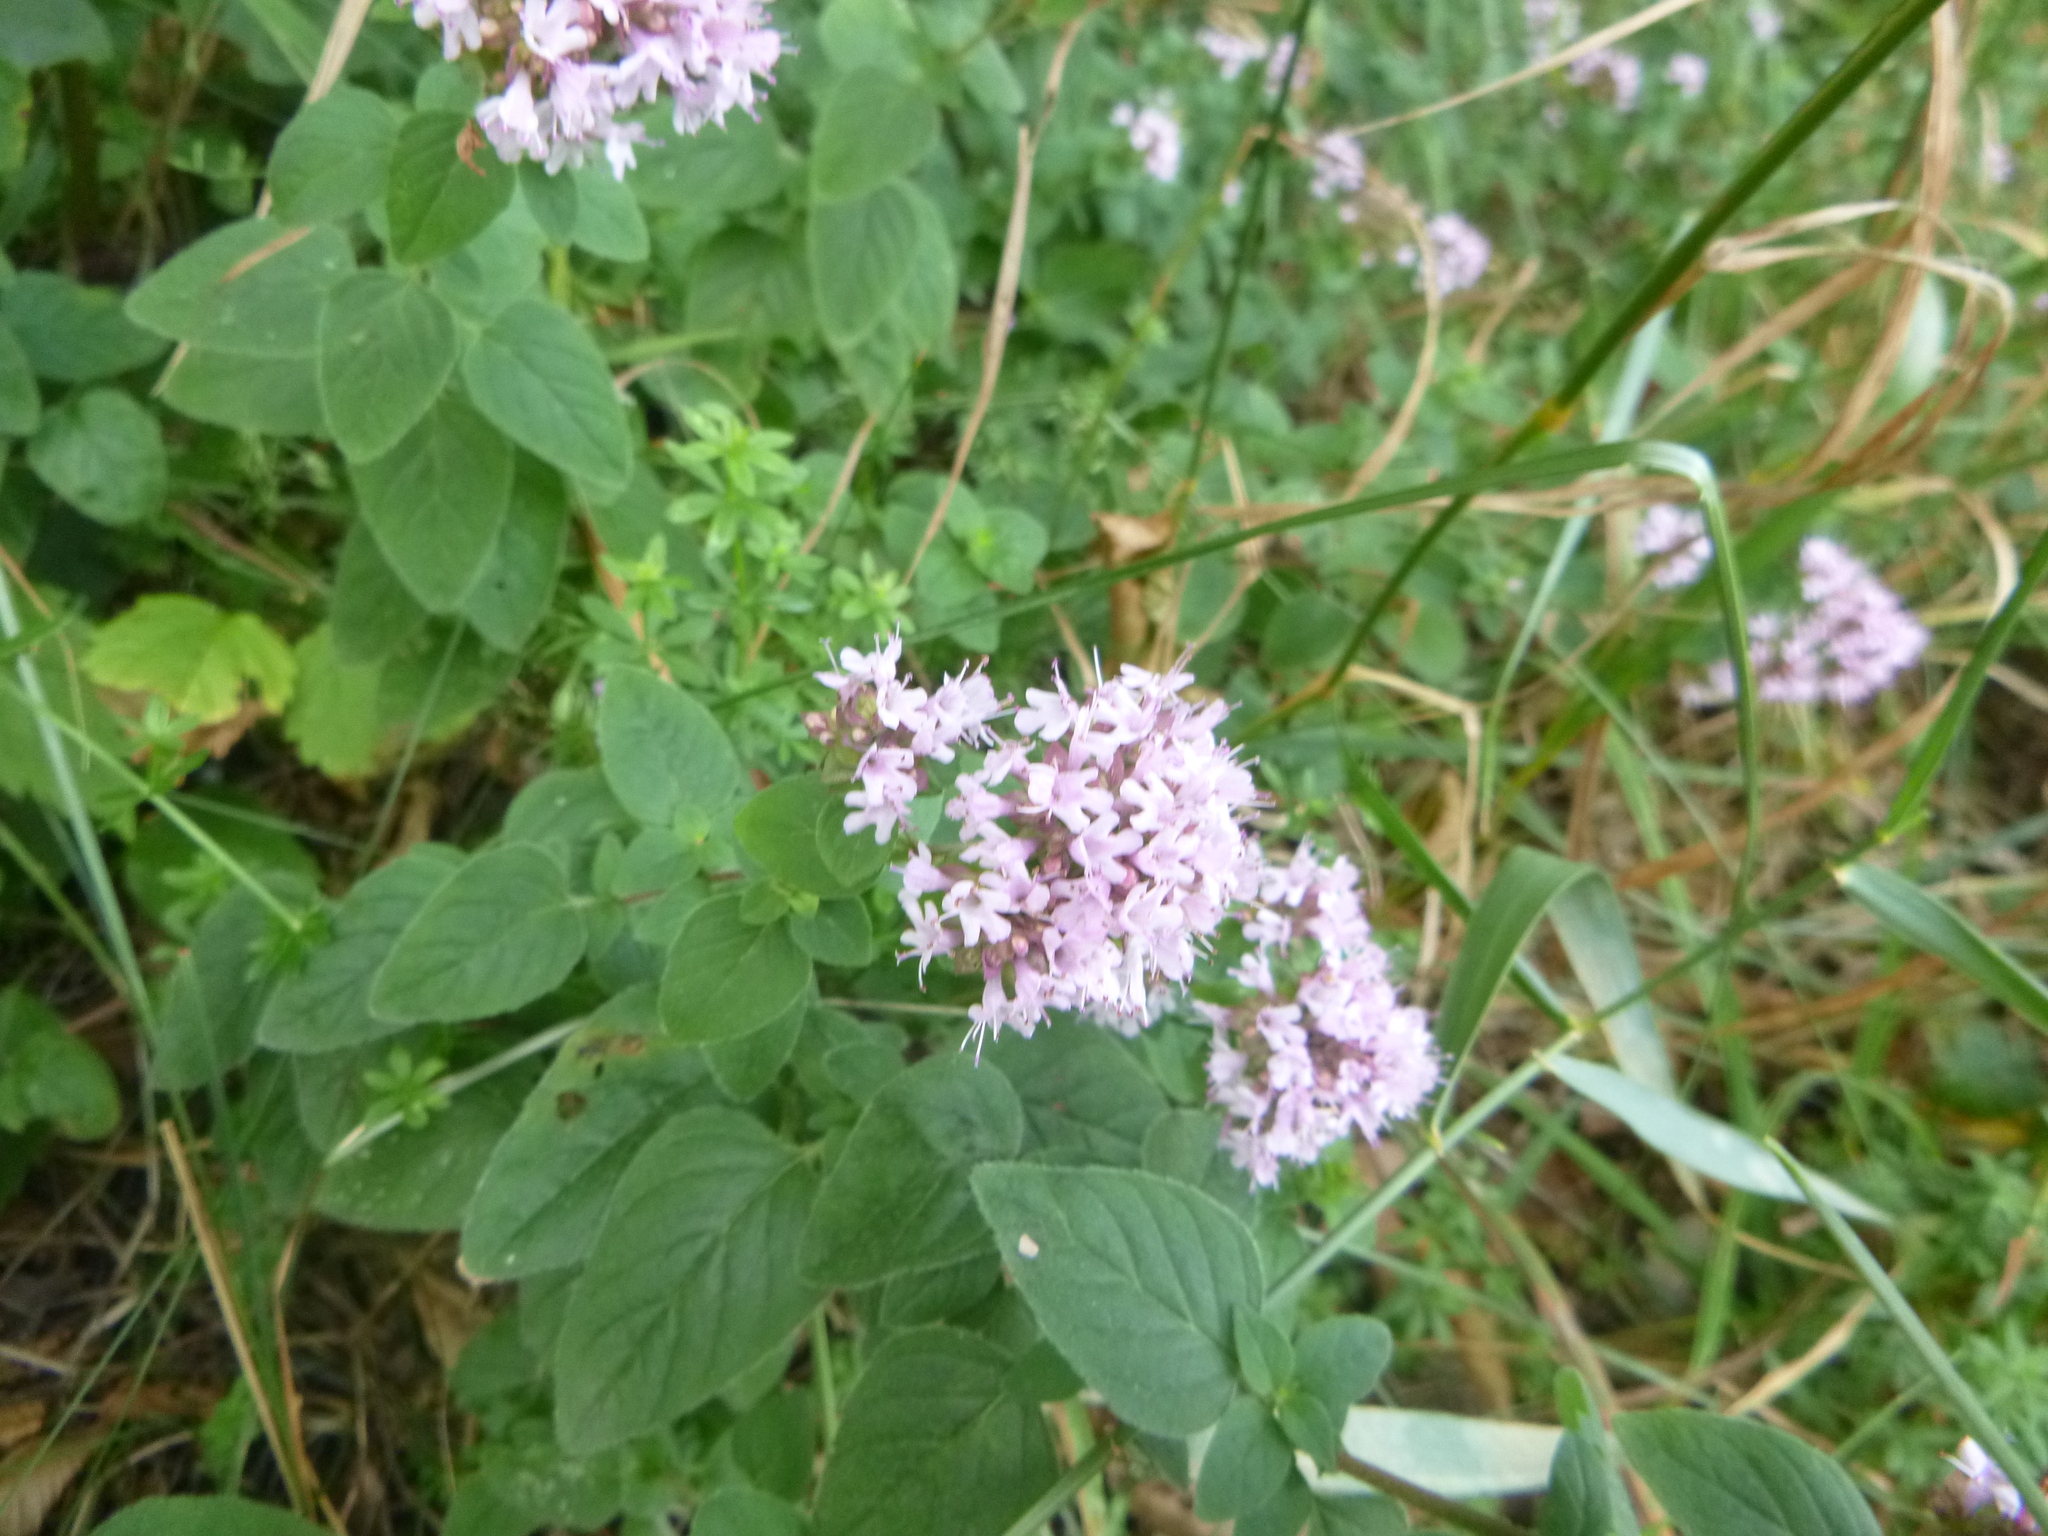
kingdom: Plantae
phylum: Tracheophyta
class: Magnoliopsida
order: Lamiales
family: Lamiaceae
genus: Origanum
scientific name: Origanum vulgare
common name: Wild marjoram
